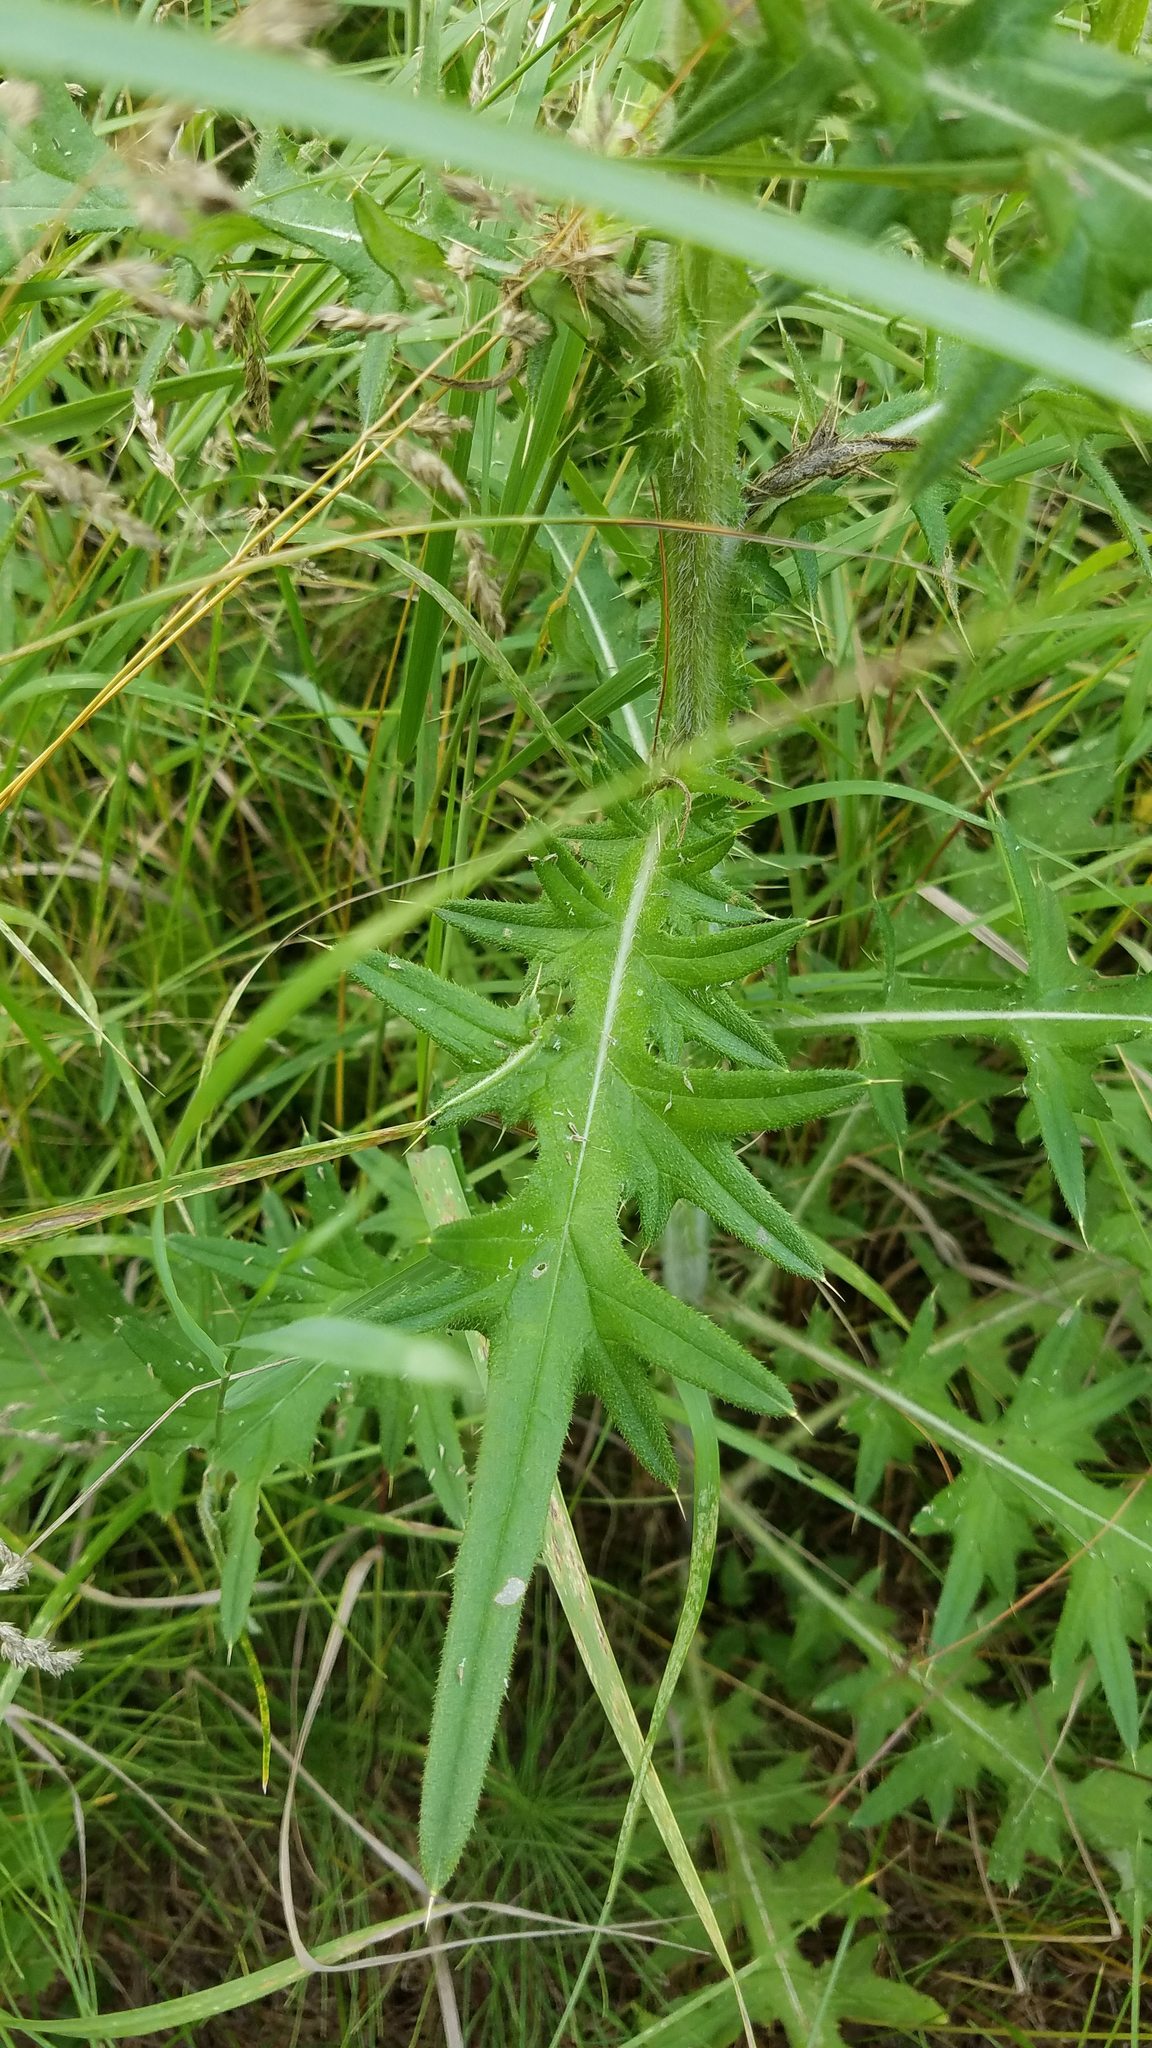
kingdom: Plantae
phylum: Tracheophyta
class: Magnoliopsida
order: Asterales
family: Asteraceae
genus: Cirsium
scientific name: Cirsium vulgare
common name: Bull thistle
